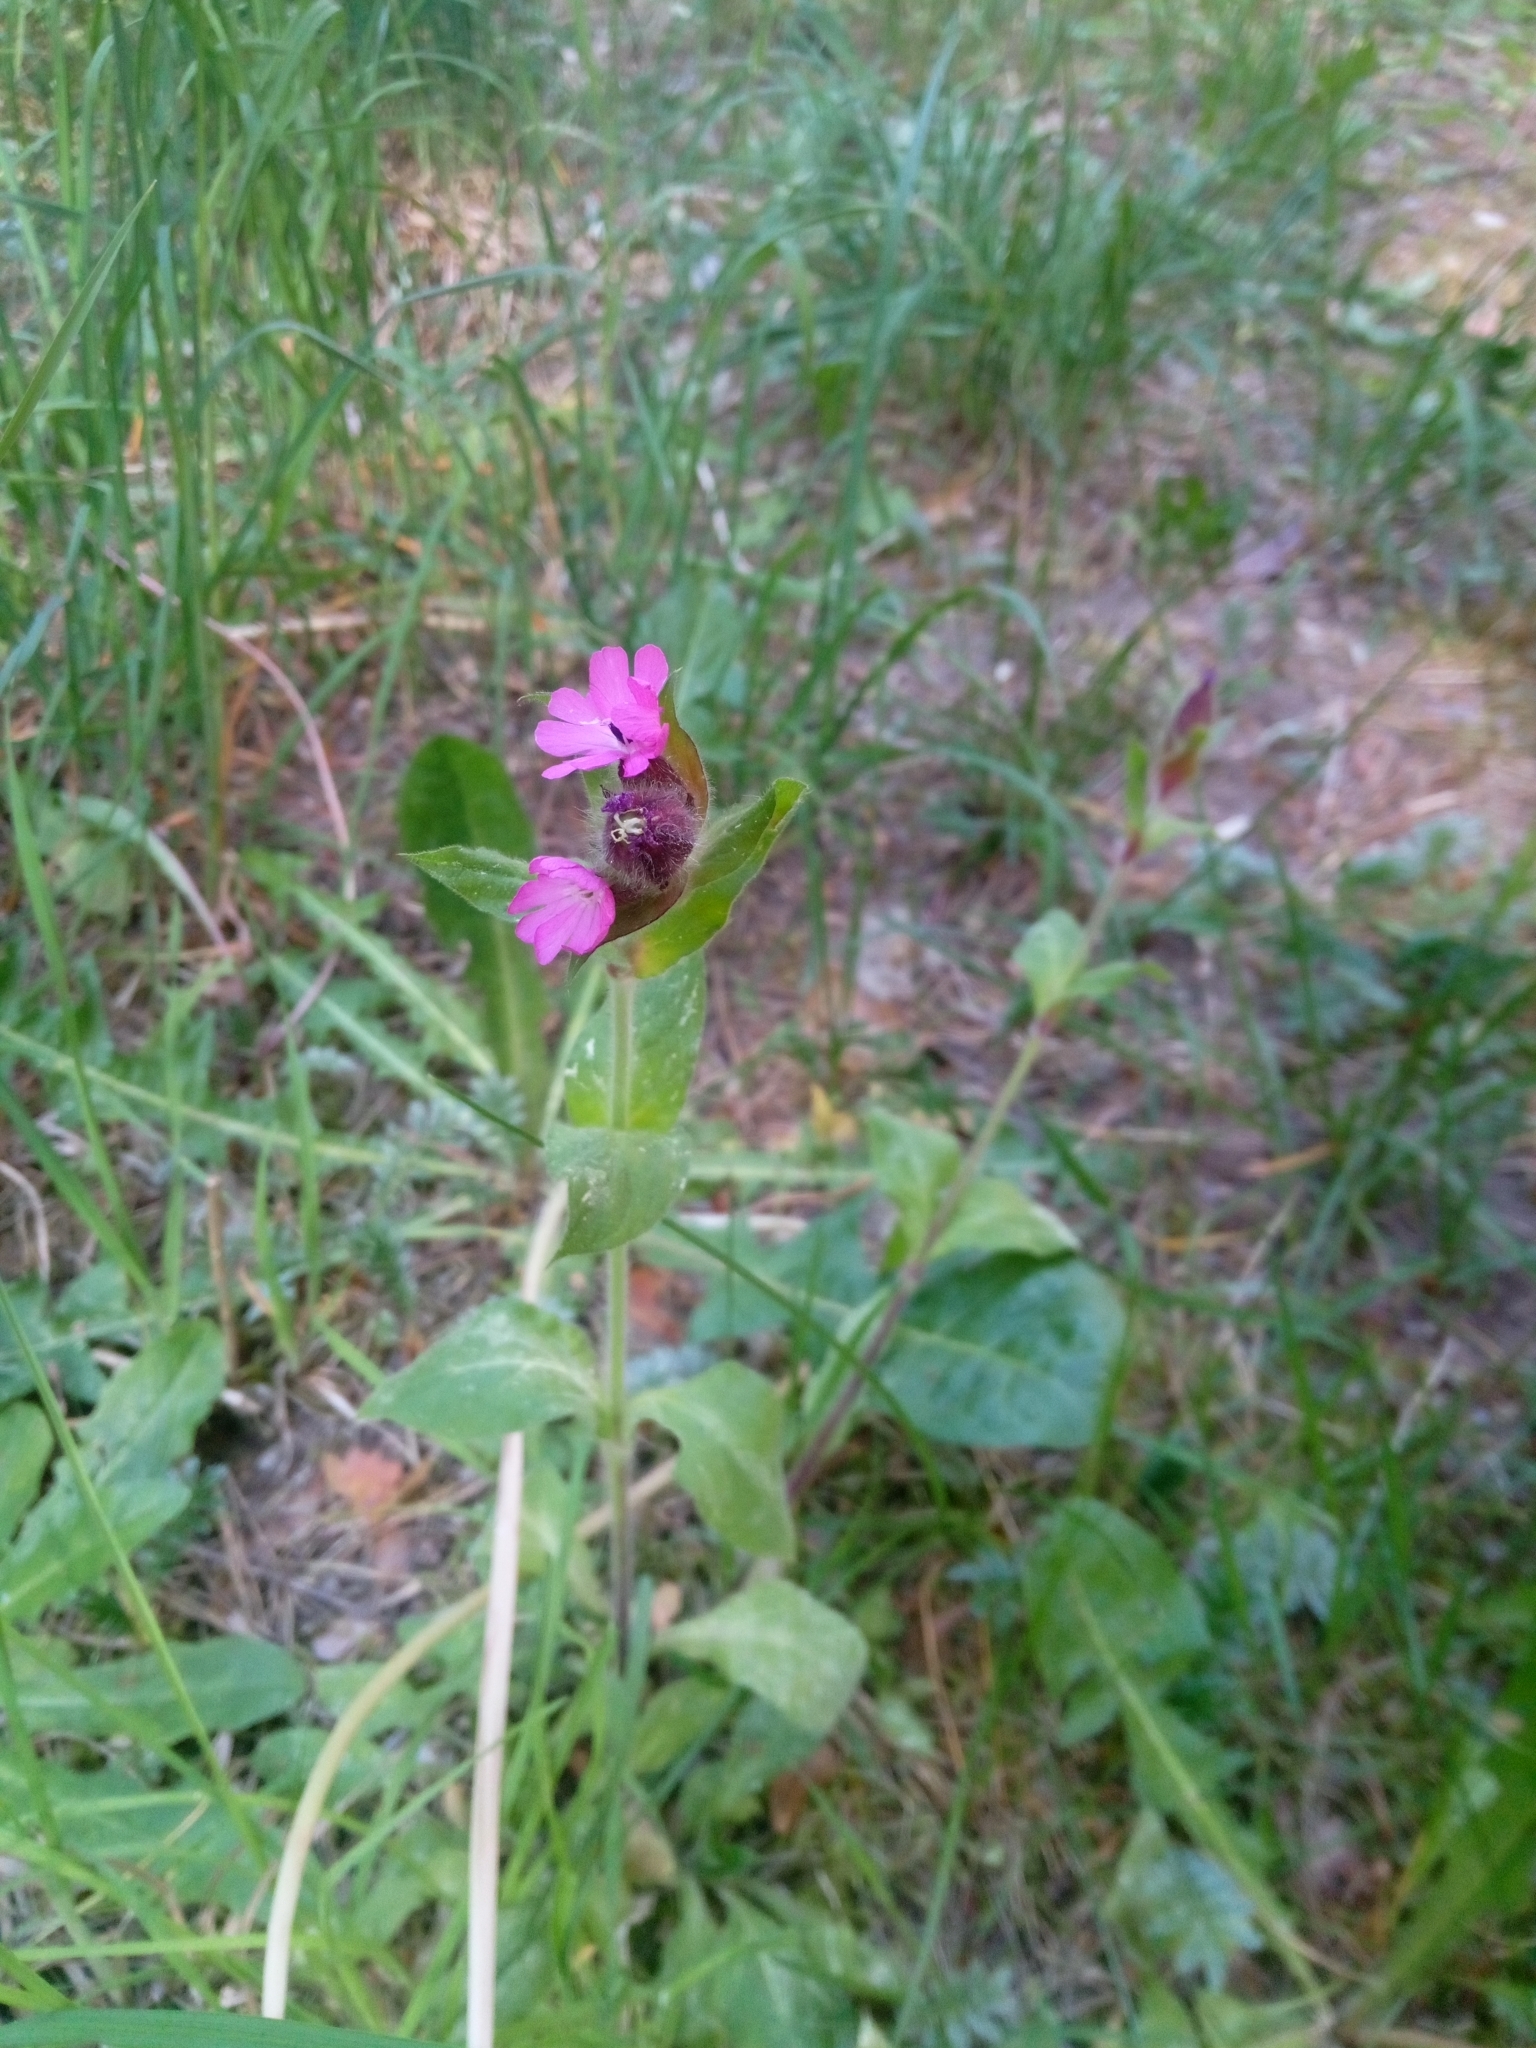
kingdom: Plantae
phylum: Tracheophyta
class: Magnoliopsida
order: Caryophyllales
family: Caryophyllaceae
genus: Silene
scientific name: Silene dioica
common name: Red campion
